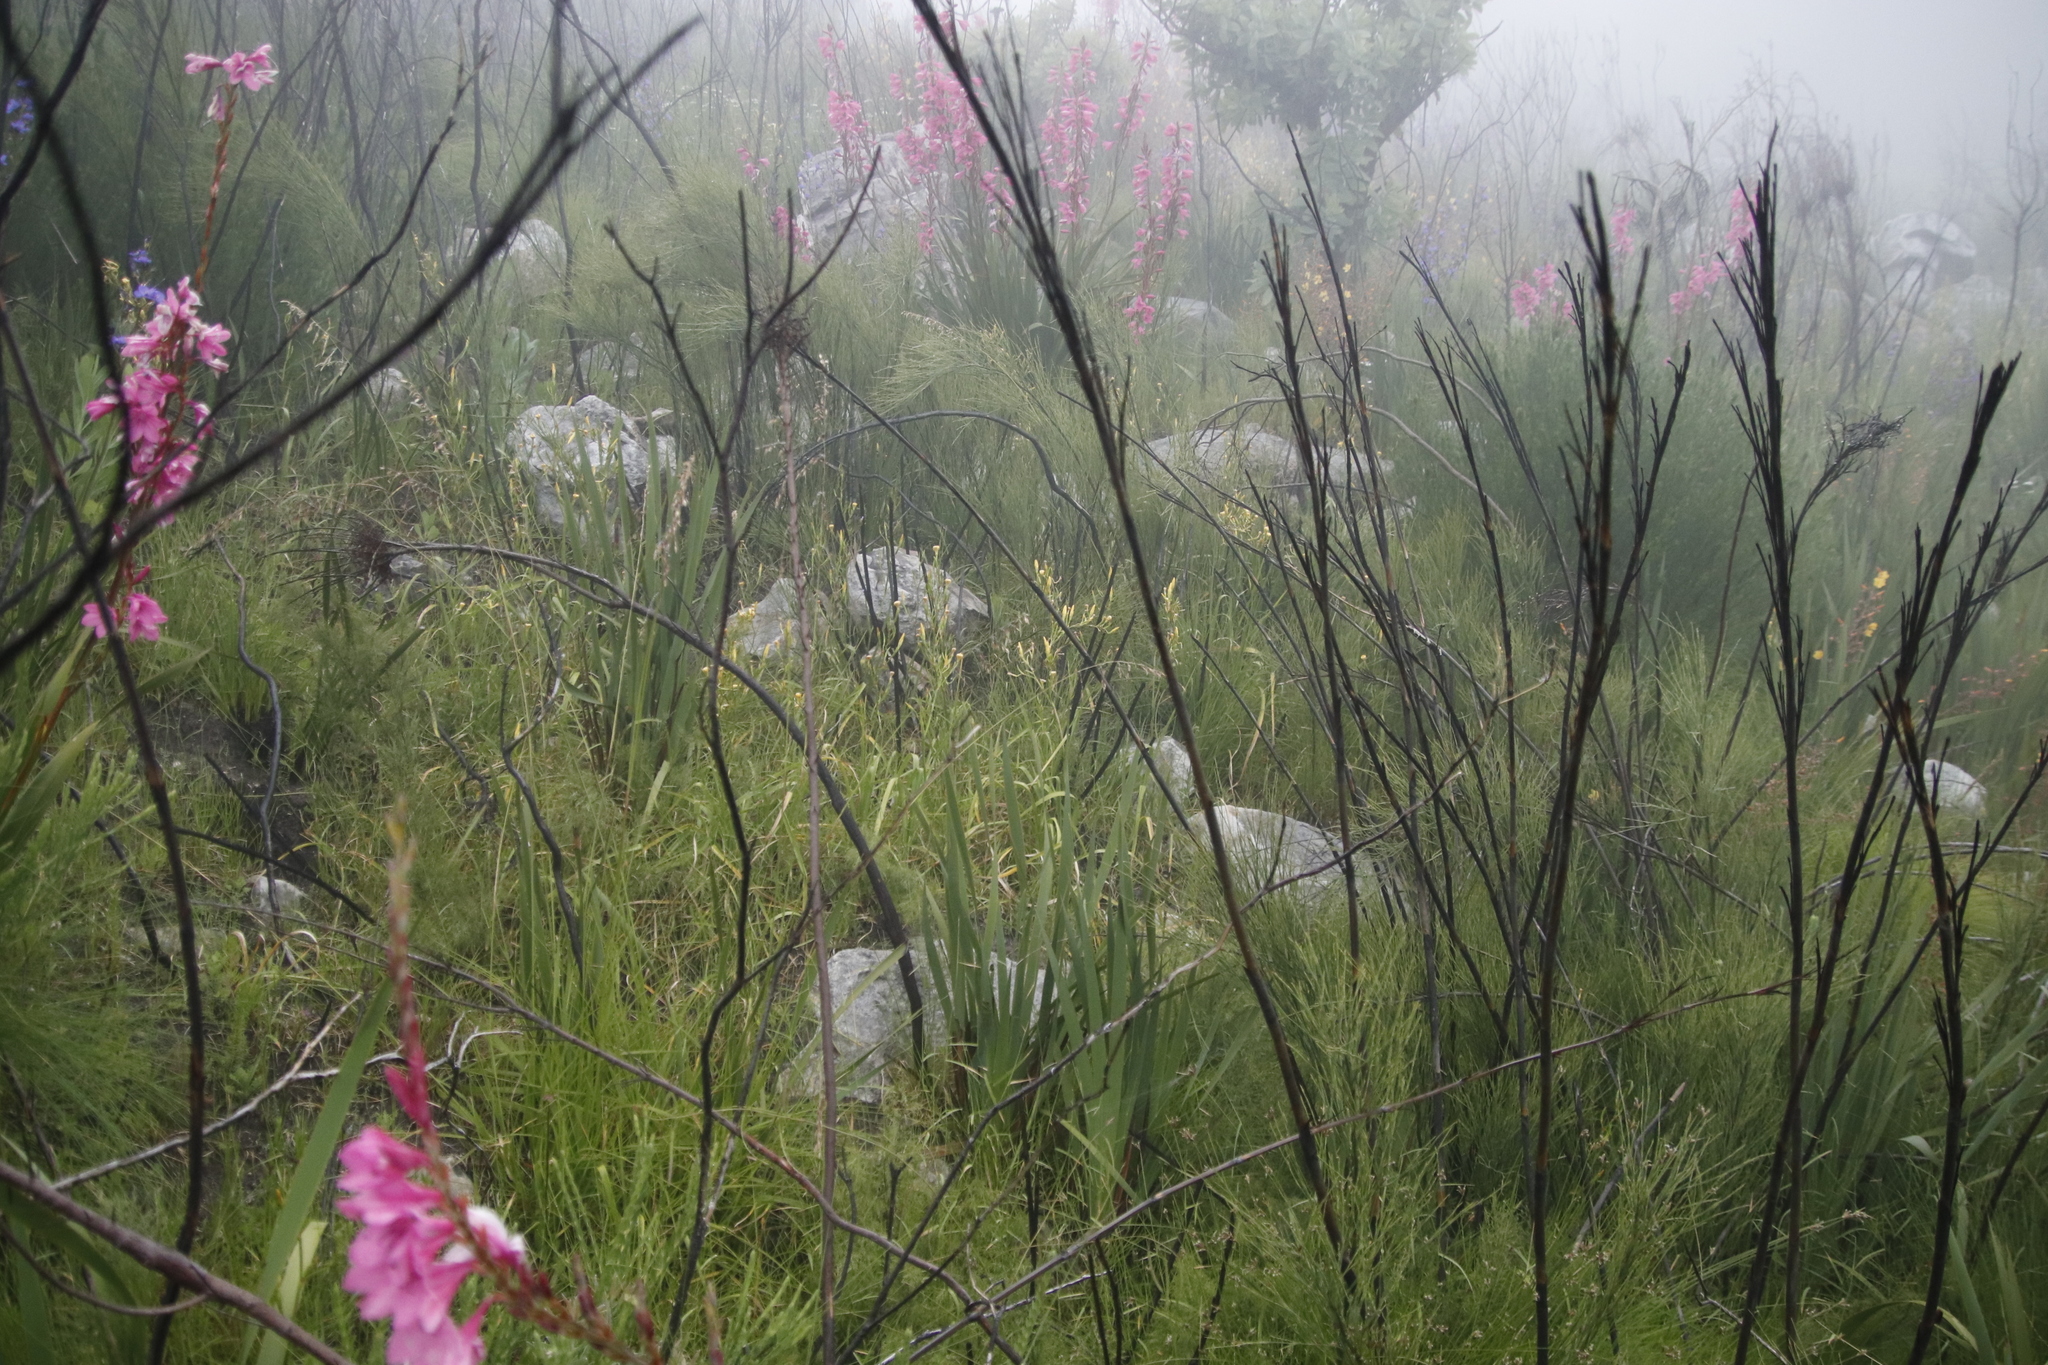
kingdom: Plantae
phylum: Tracheophyta
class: Liliopsida
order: Asparagales
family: Iridaceae
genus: Moraea
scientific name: Moraea ramosissima
